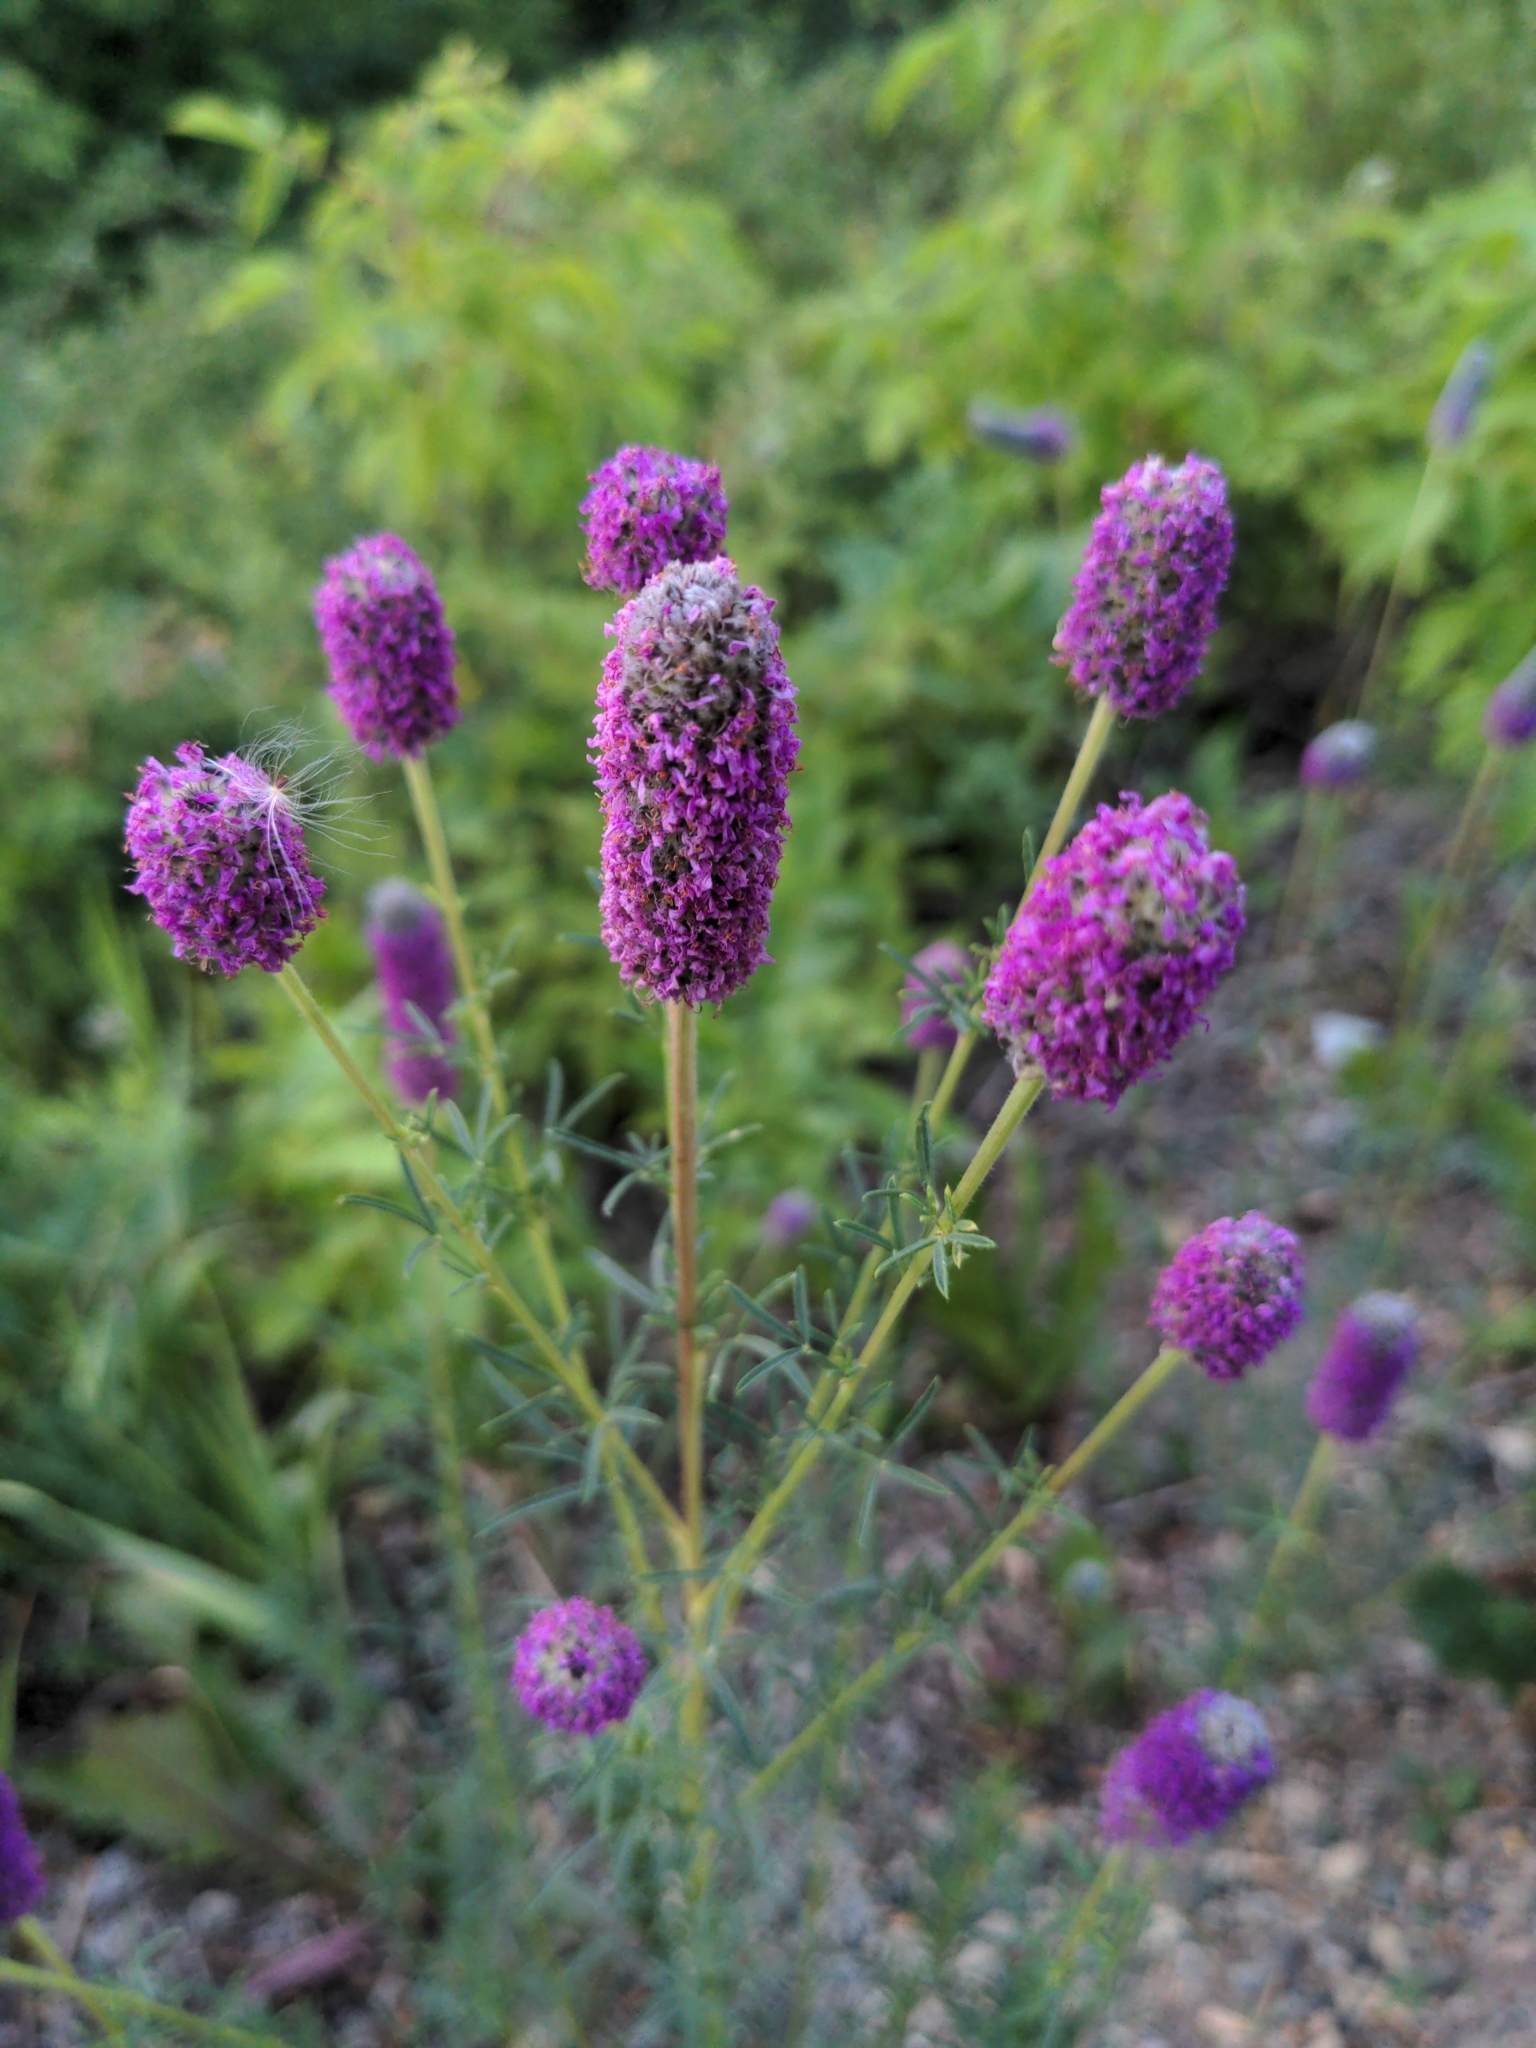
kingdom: Plantae
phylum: Tracheophyta
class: Magnoliopsida
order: Fabales
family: Fabaceae
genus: Dalea
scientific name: Dalea purpurea
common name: Purple prairie-clover
